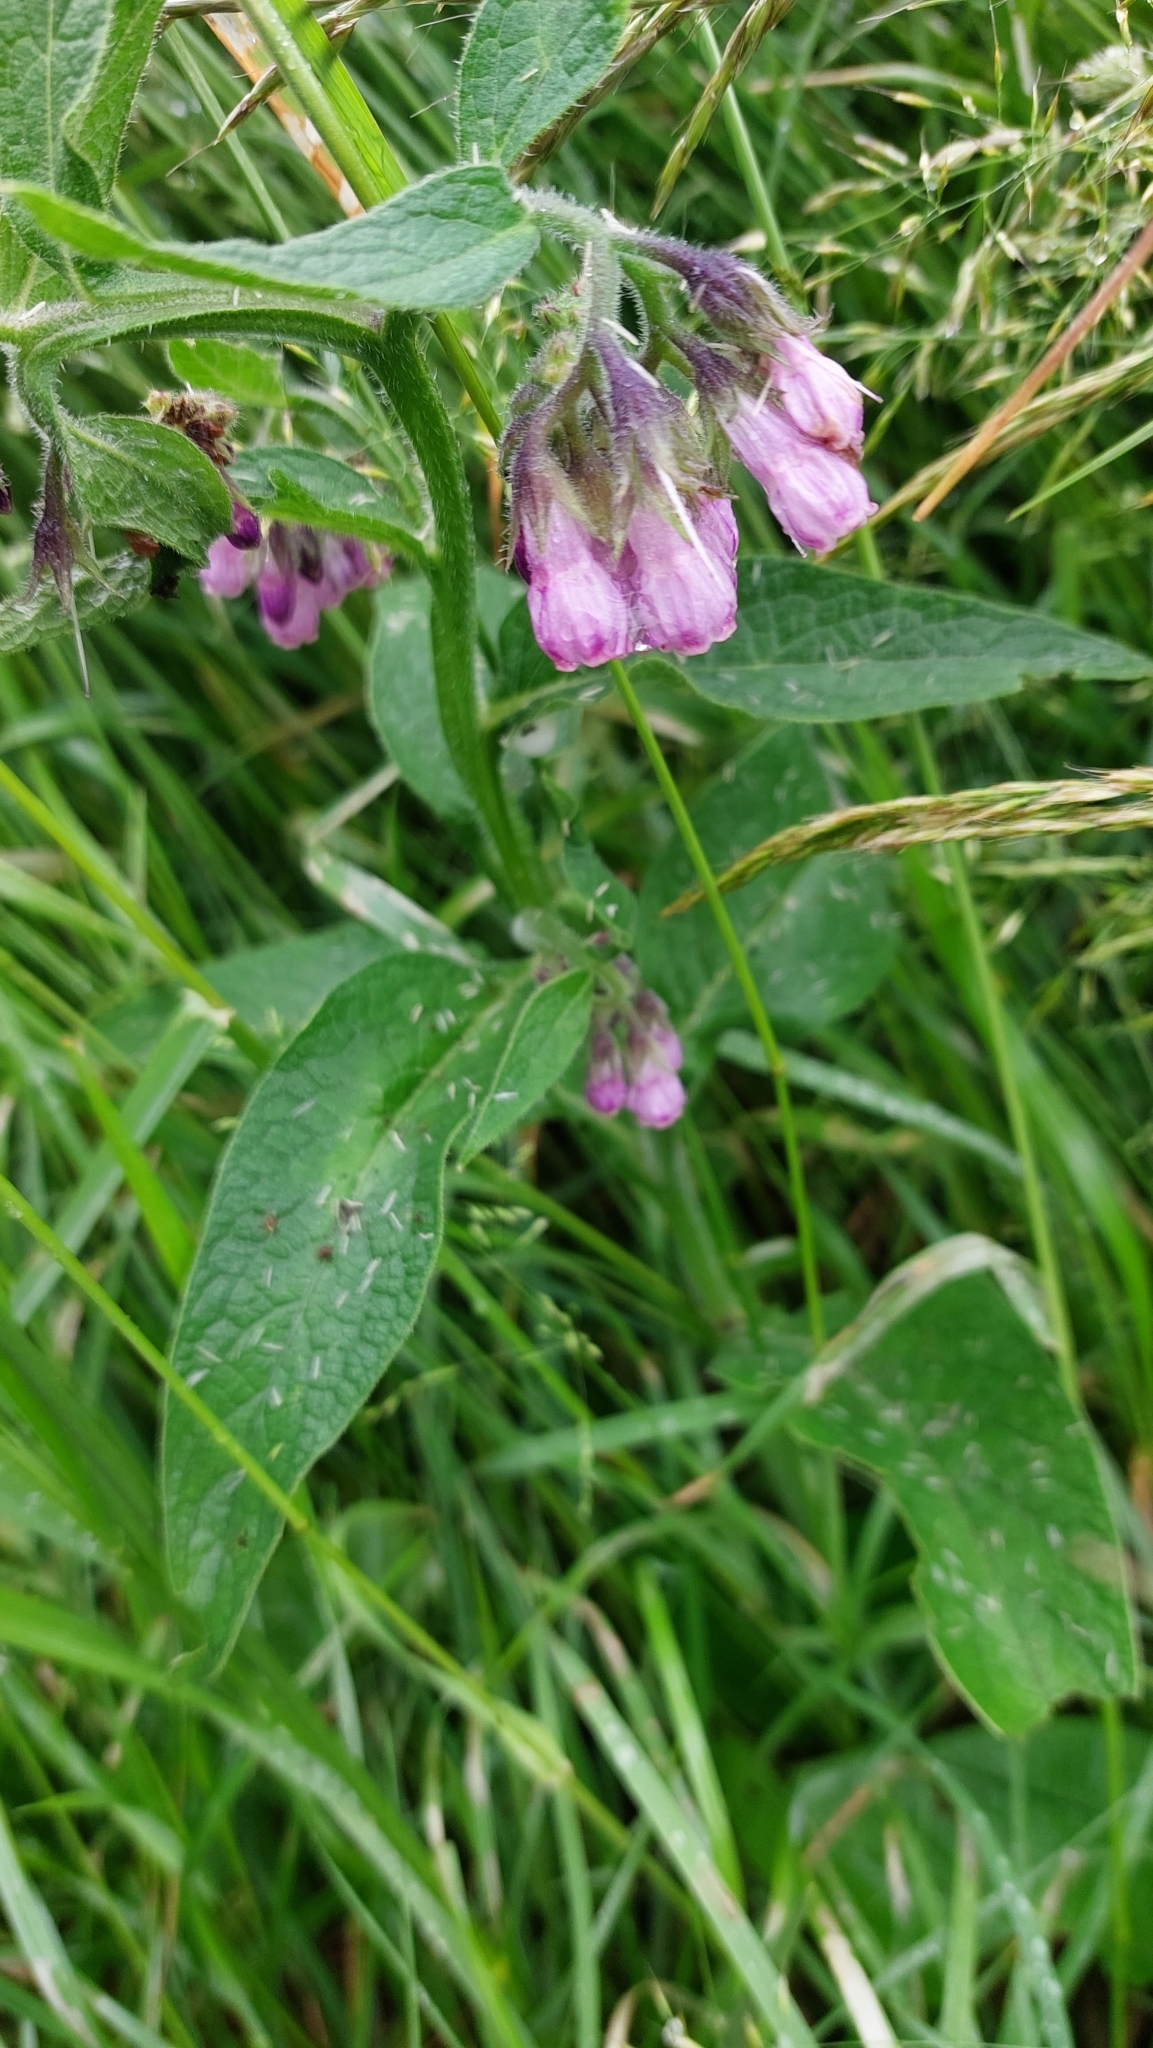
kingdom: Plantae
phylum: Tracheophyta
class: Magnoliopsida
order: Boraginales
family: Boraginaceae
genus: Symphytum
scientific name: Symphytum officinale
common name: Common comfrey
